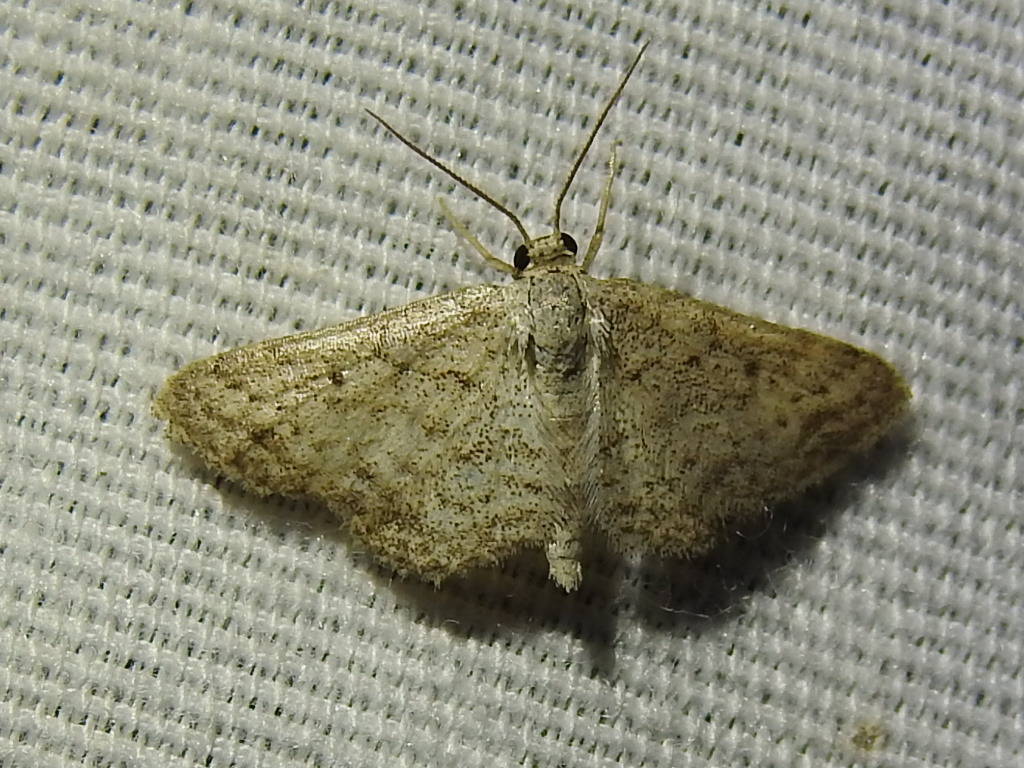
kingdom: Animalia
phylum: Arthropoda
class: Insecta
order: Lepidoptera
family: Geometridae
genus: Lobocleta
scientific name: Lobocleta ossularia
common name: Drab brown wave
